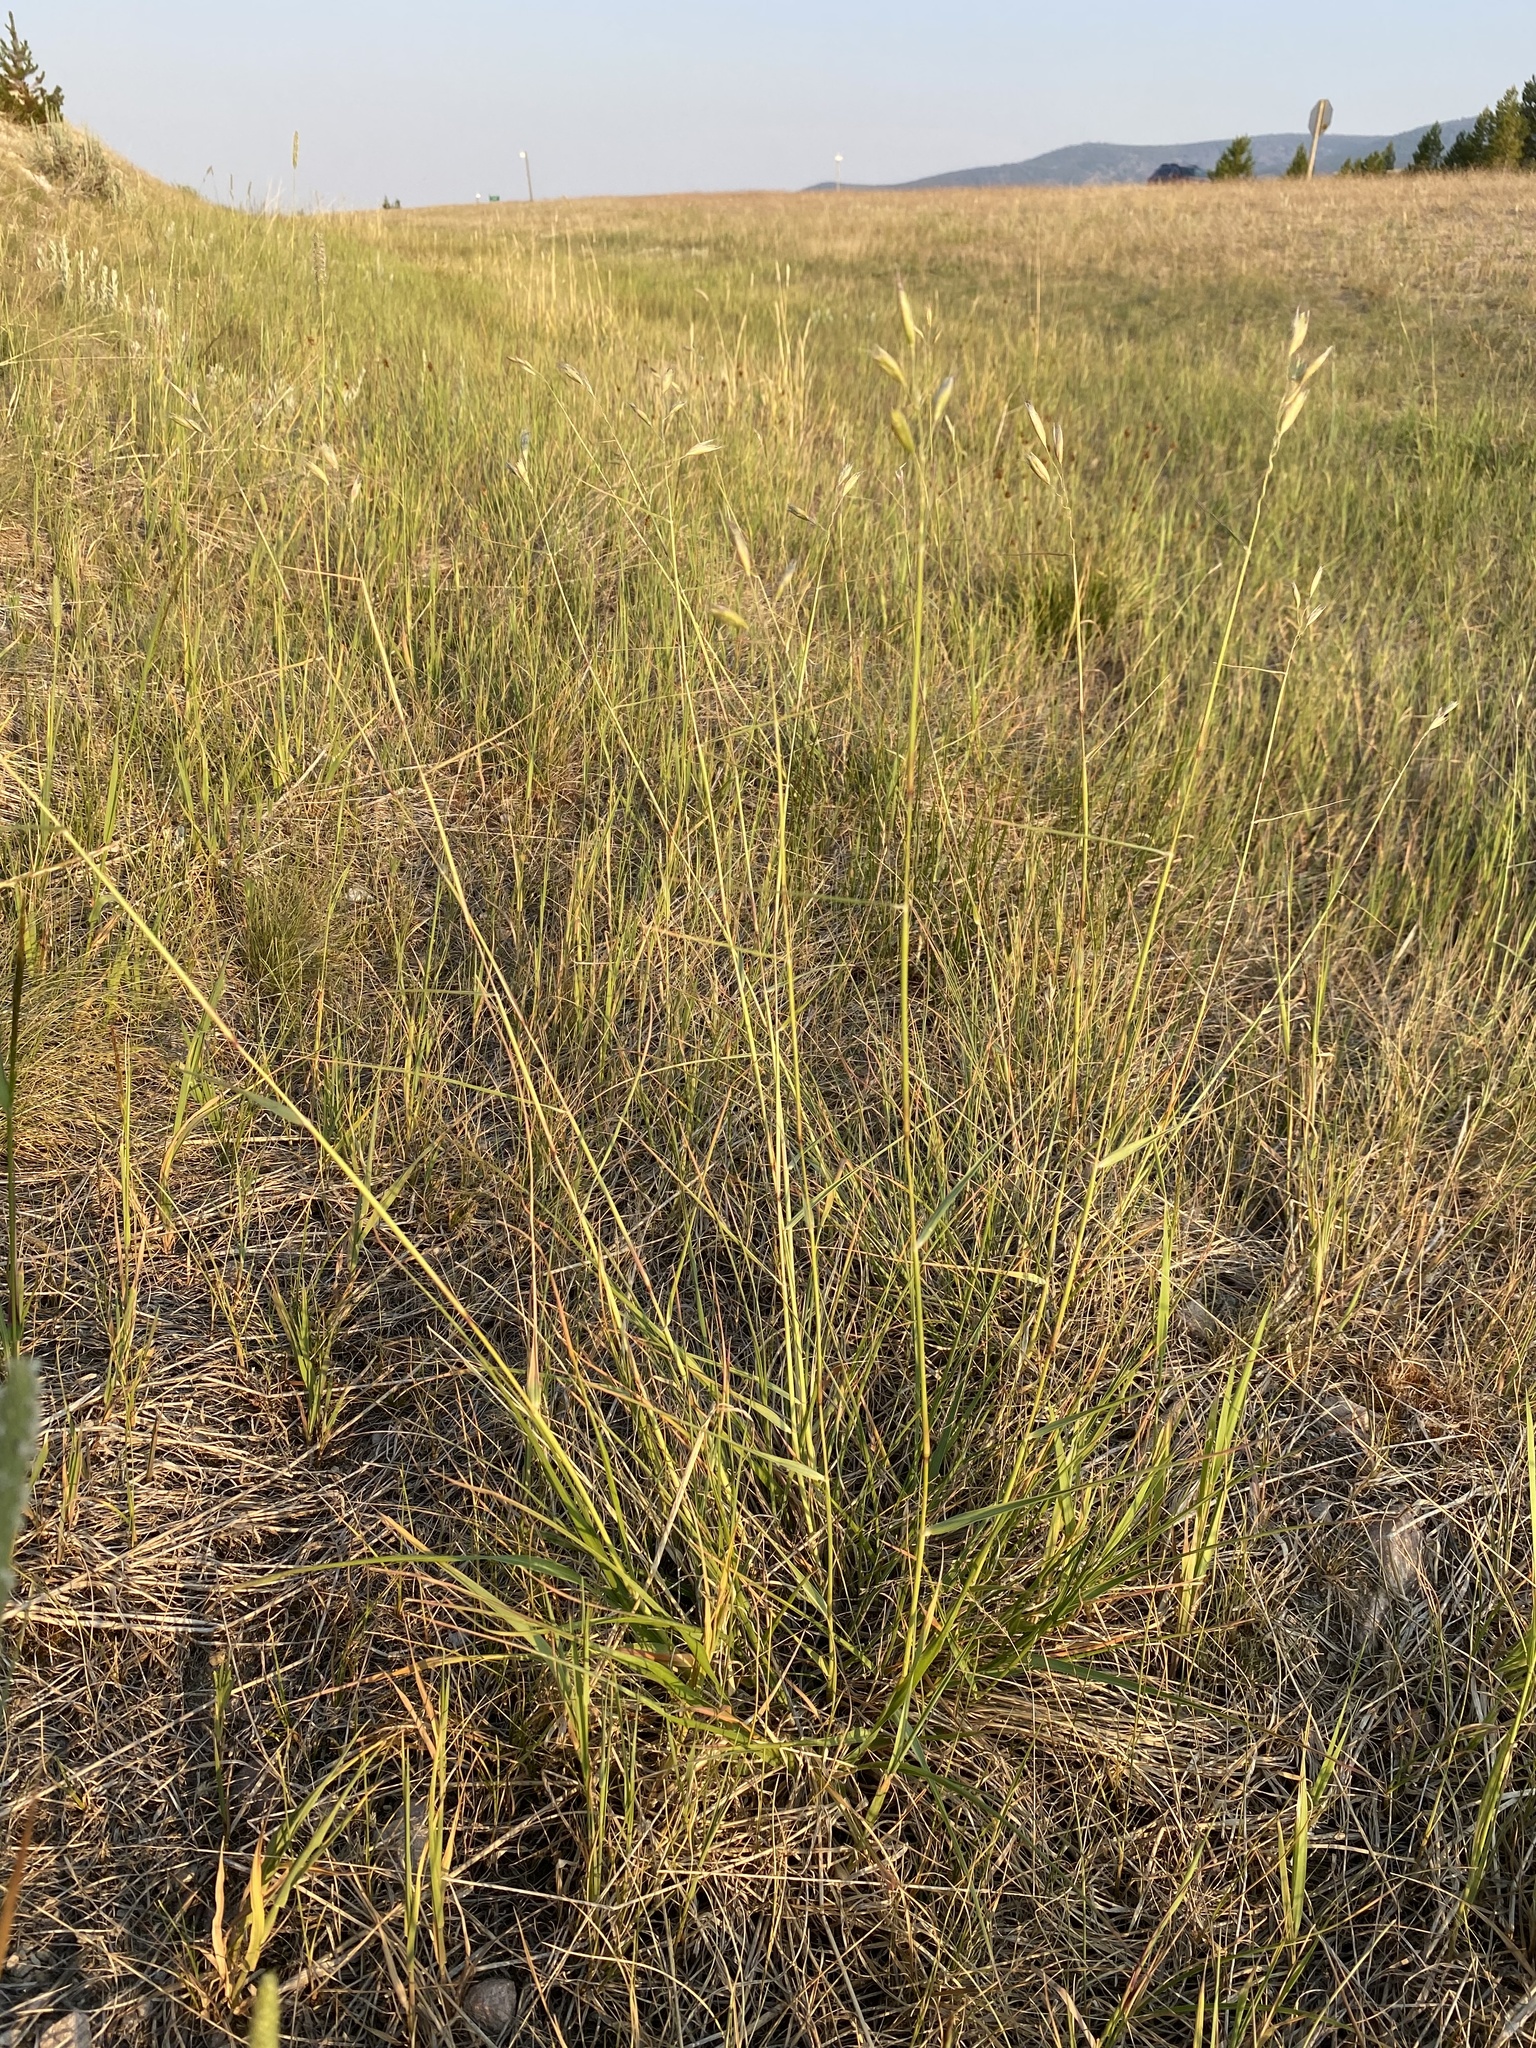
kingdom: Plantae
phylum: Tracheophyta
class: Liliopsida
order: Poales
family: Poaceae
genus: Danthonia
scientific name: Danthonia californica
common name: California oat grass
